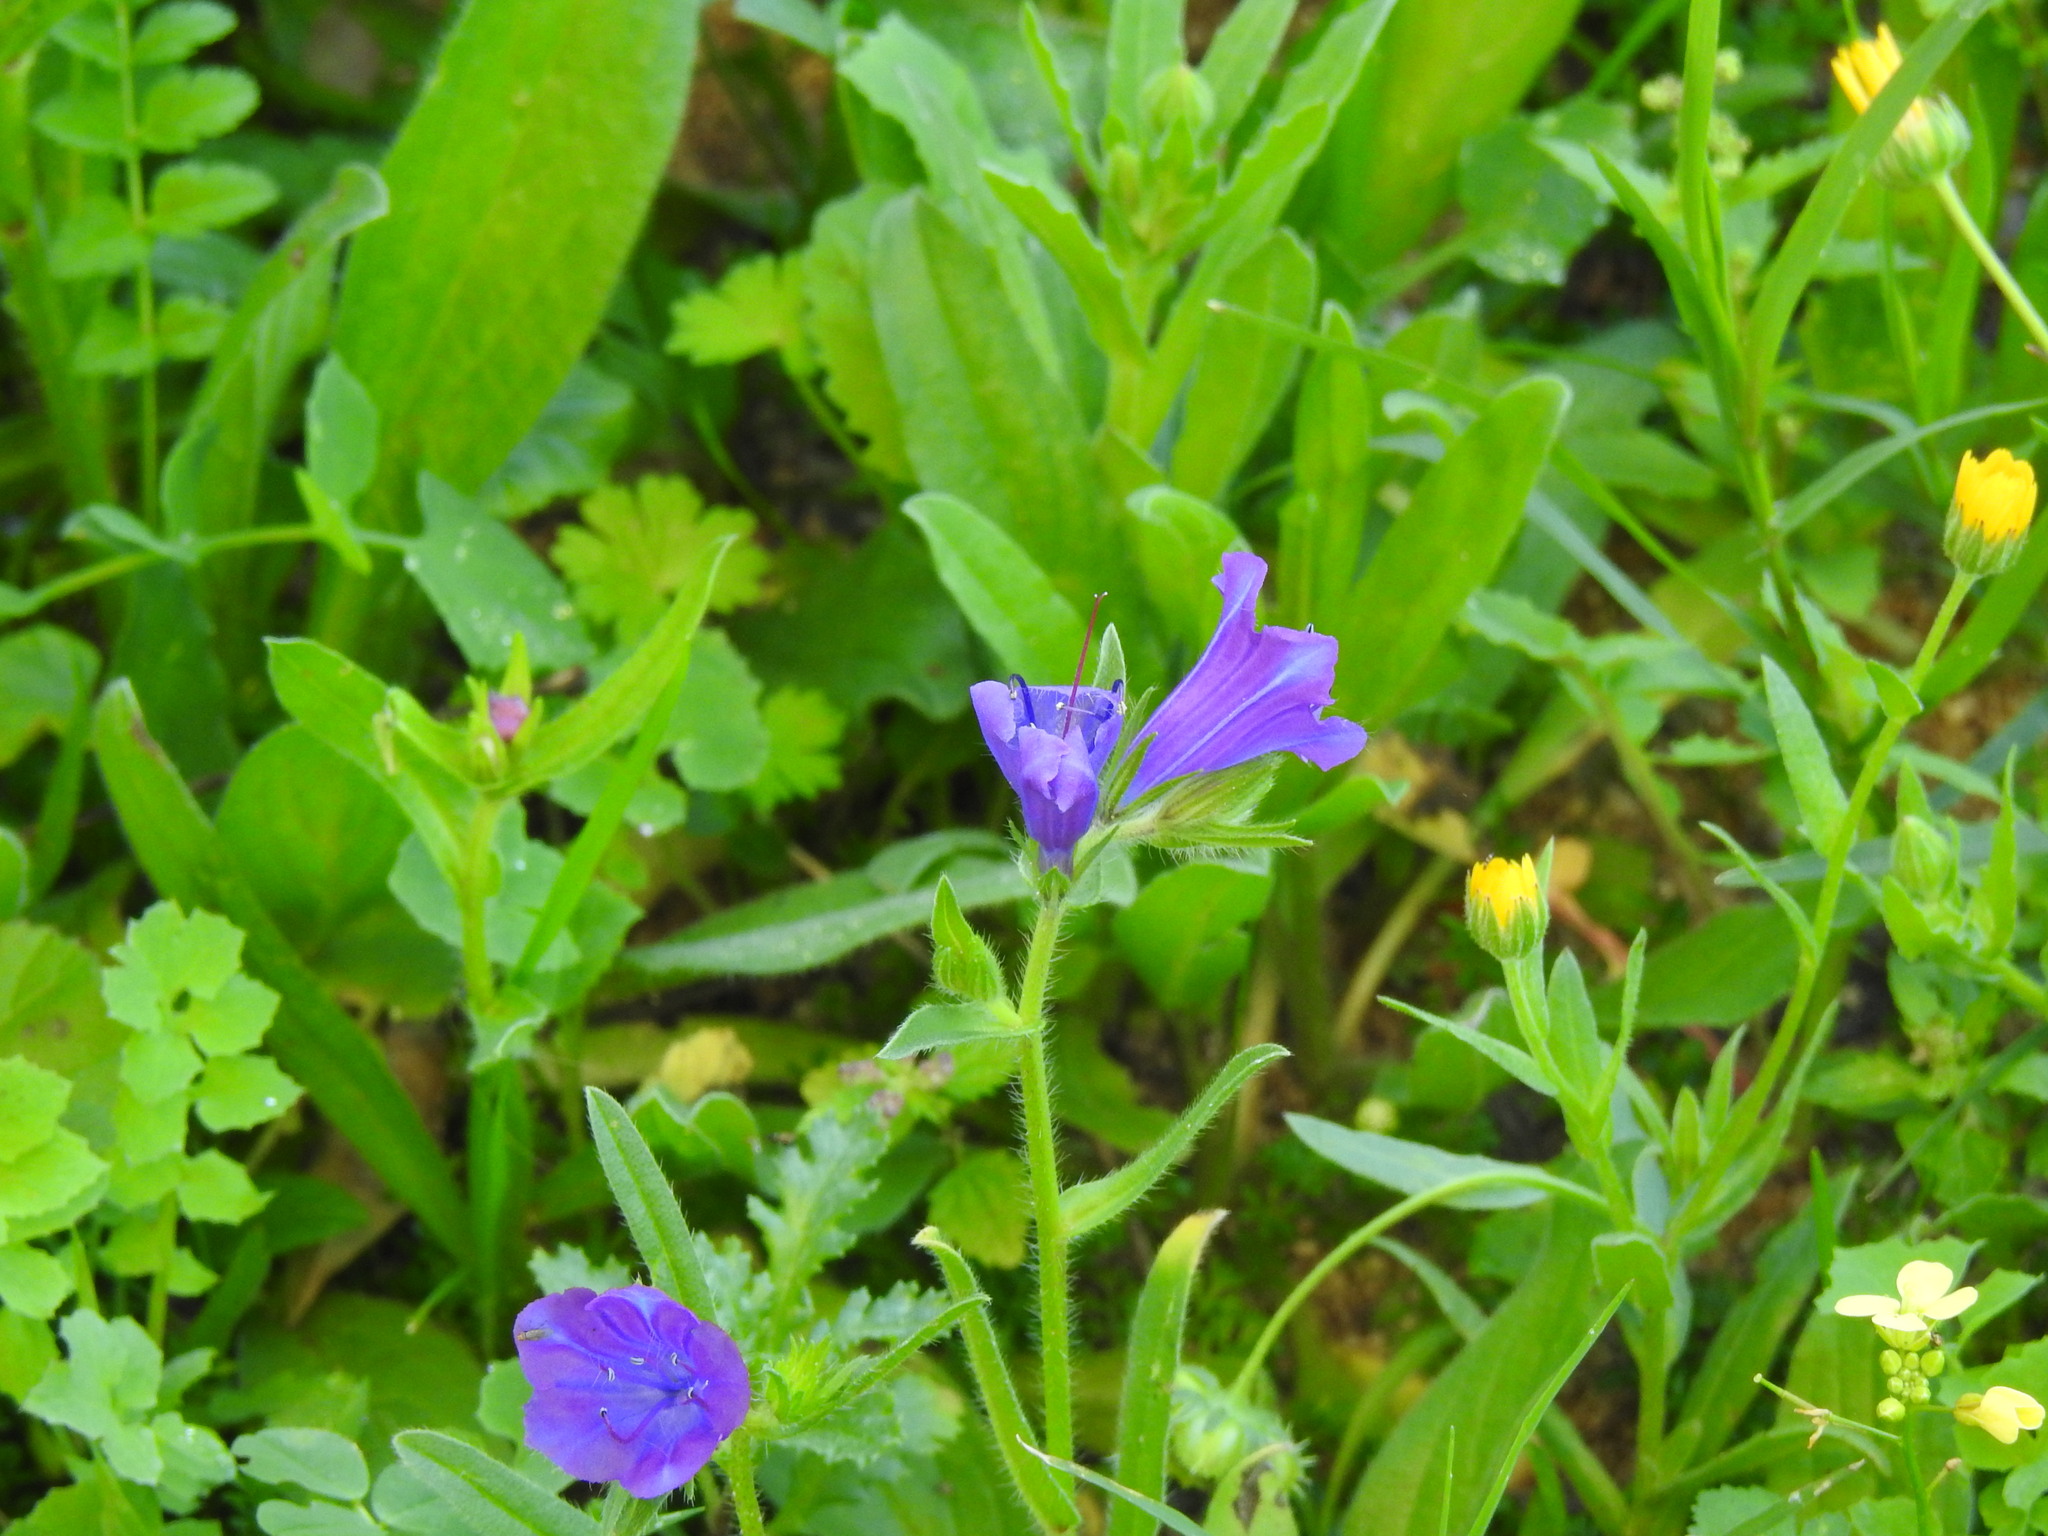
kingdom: Plantae
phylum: Tracheophyta
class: Magnoliopsida
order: Boraginales
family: Boraginaceae
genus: Echium
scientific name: Echium plantagineum
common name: Purple viper's-bugloss
